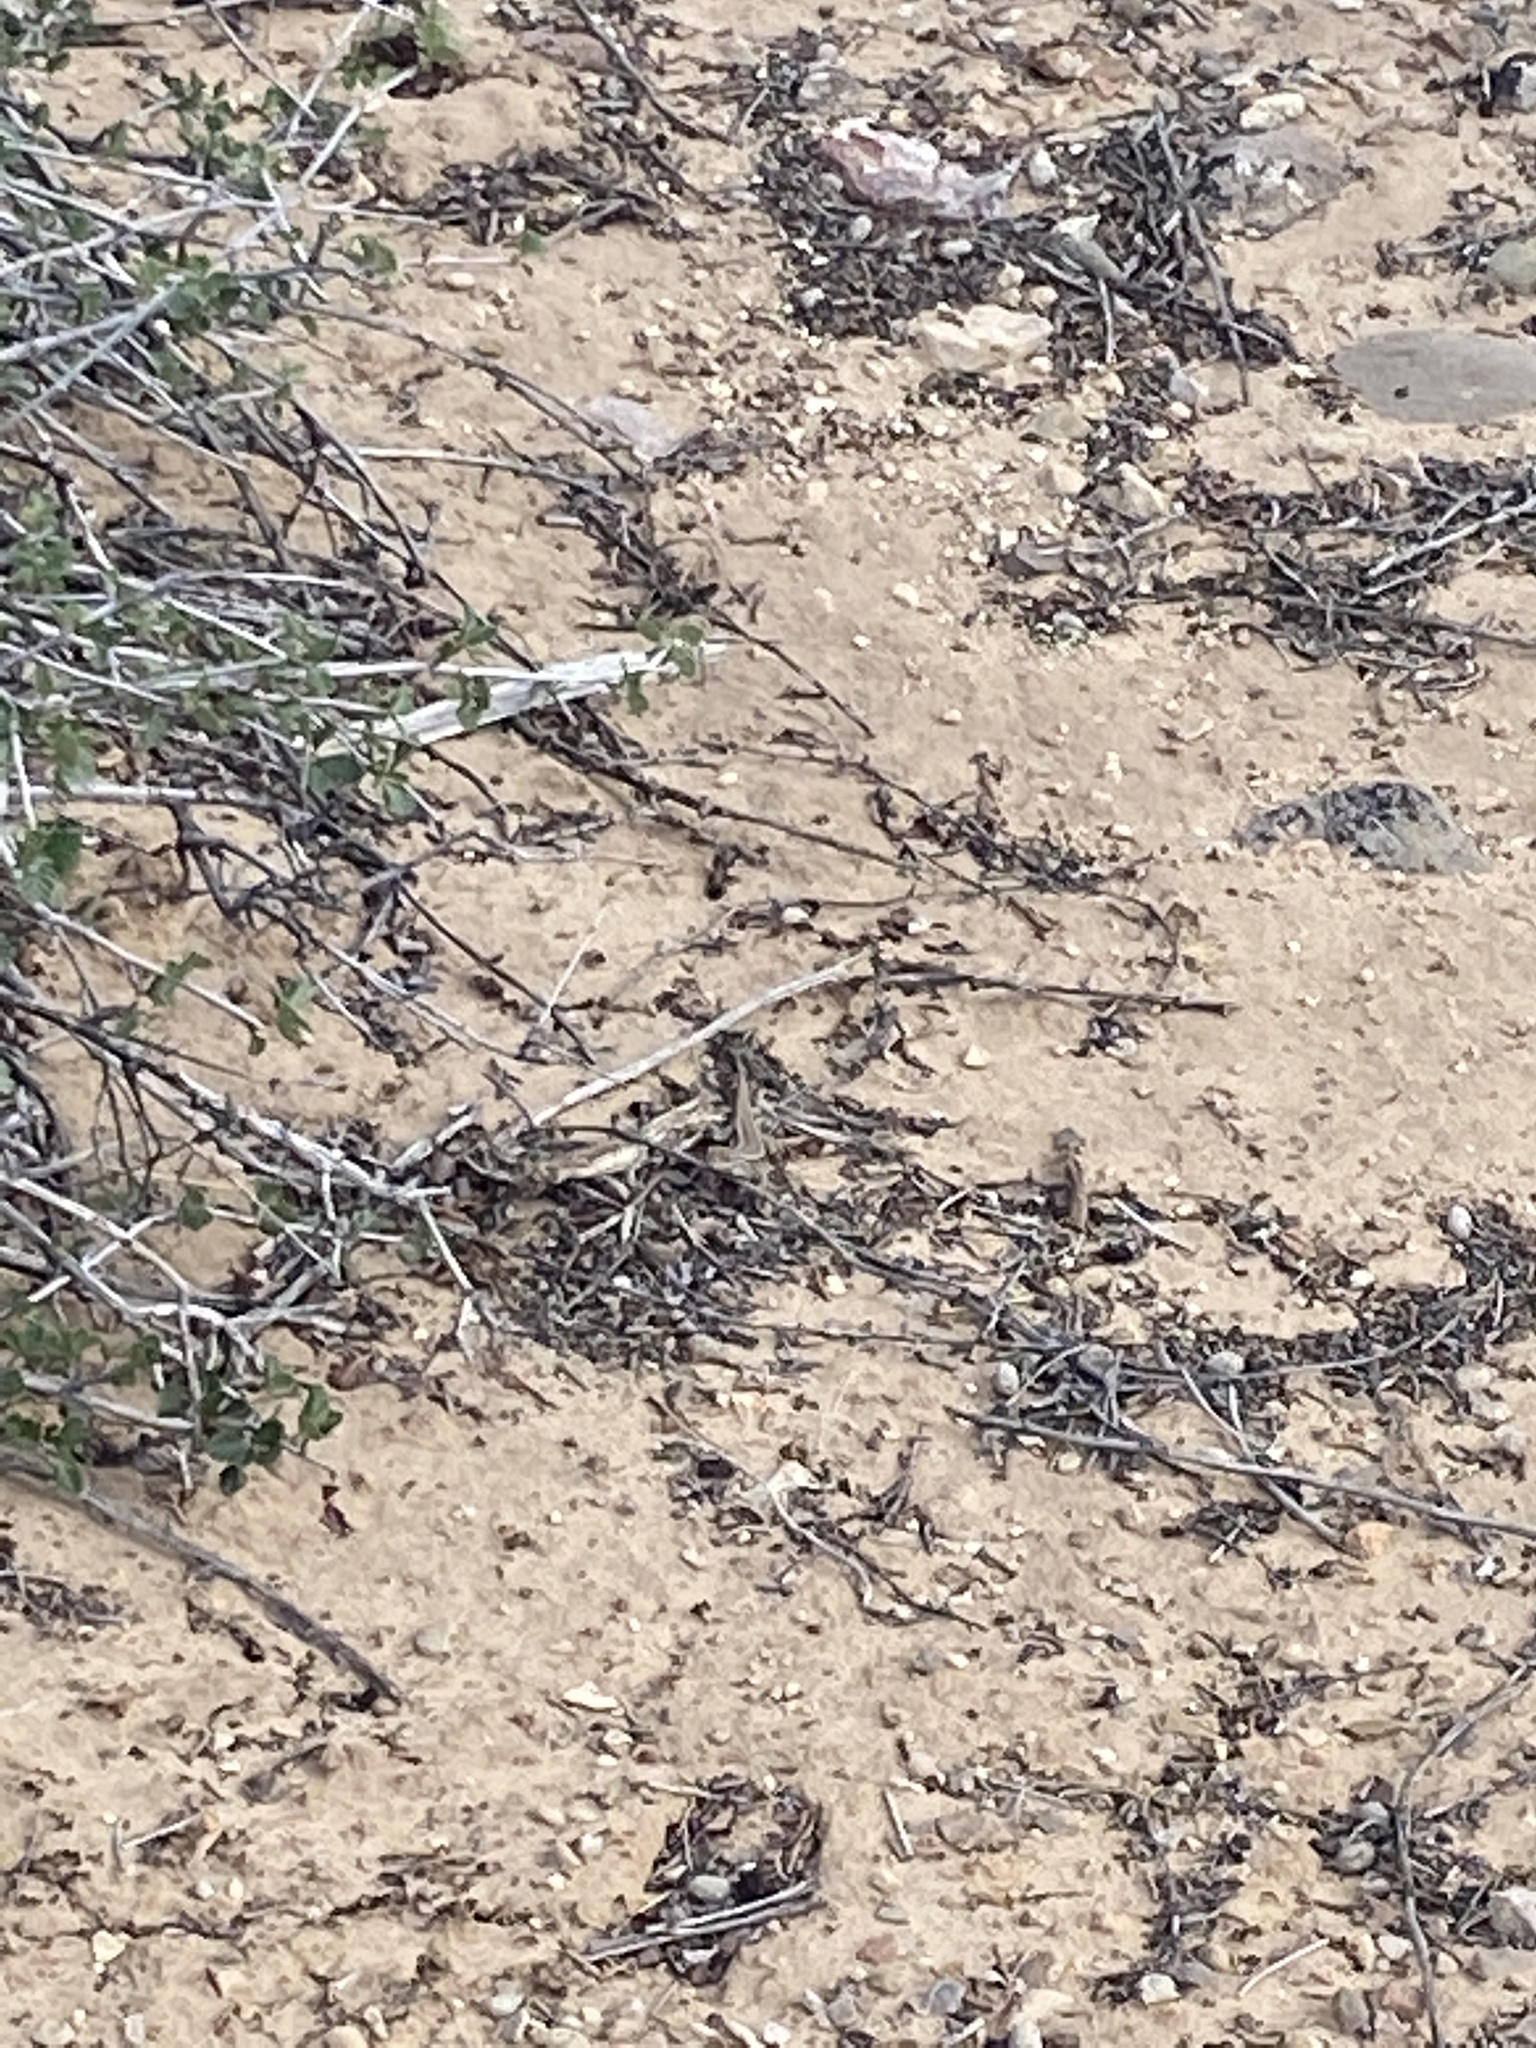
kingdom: Animalia
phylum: Chordata
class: Squamata
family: Phrynosomatidae
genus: Sceloporus
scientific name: Sceloporus graciosus
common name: Sagebrush lizard
